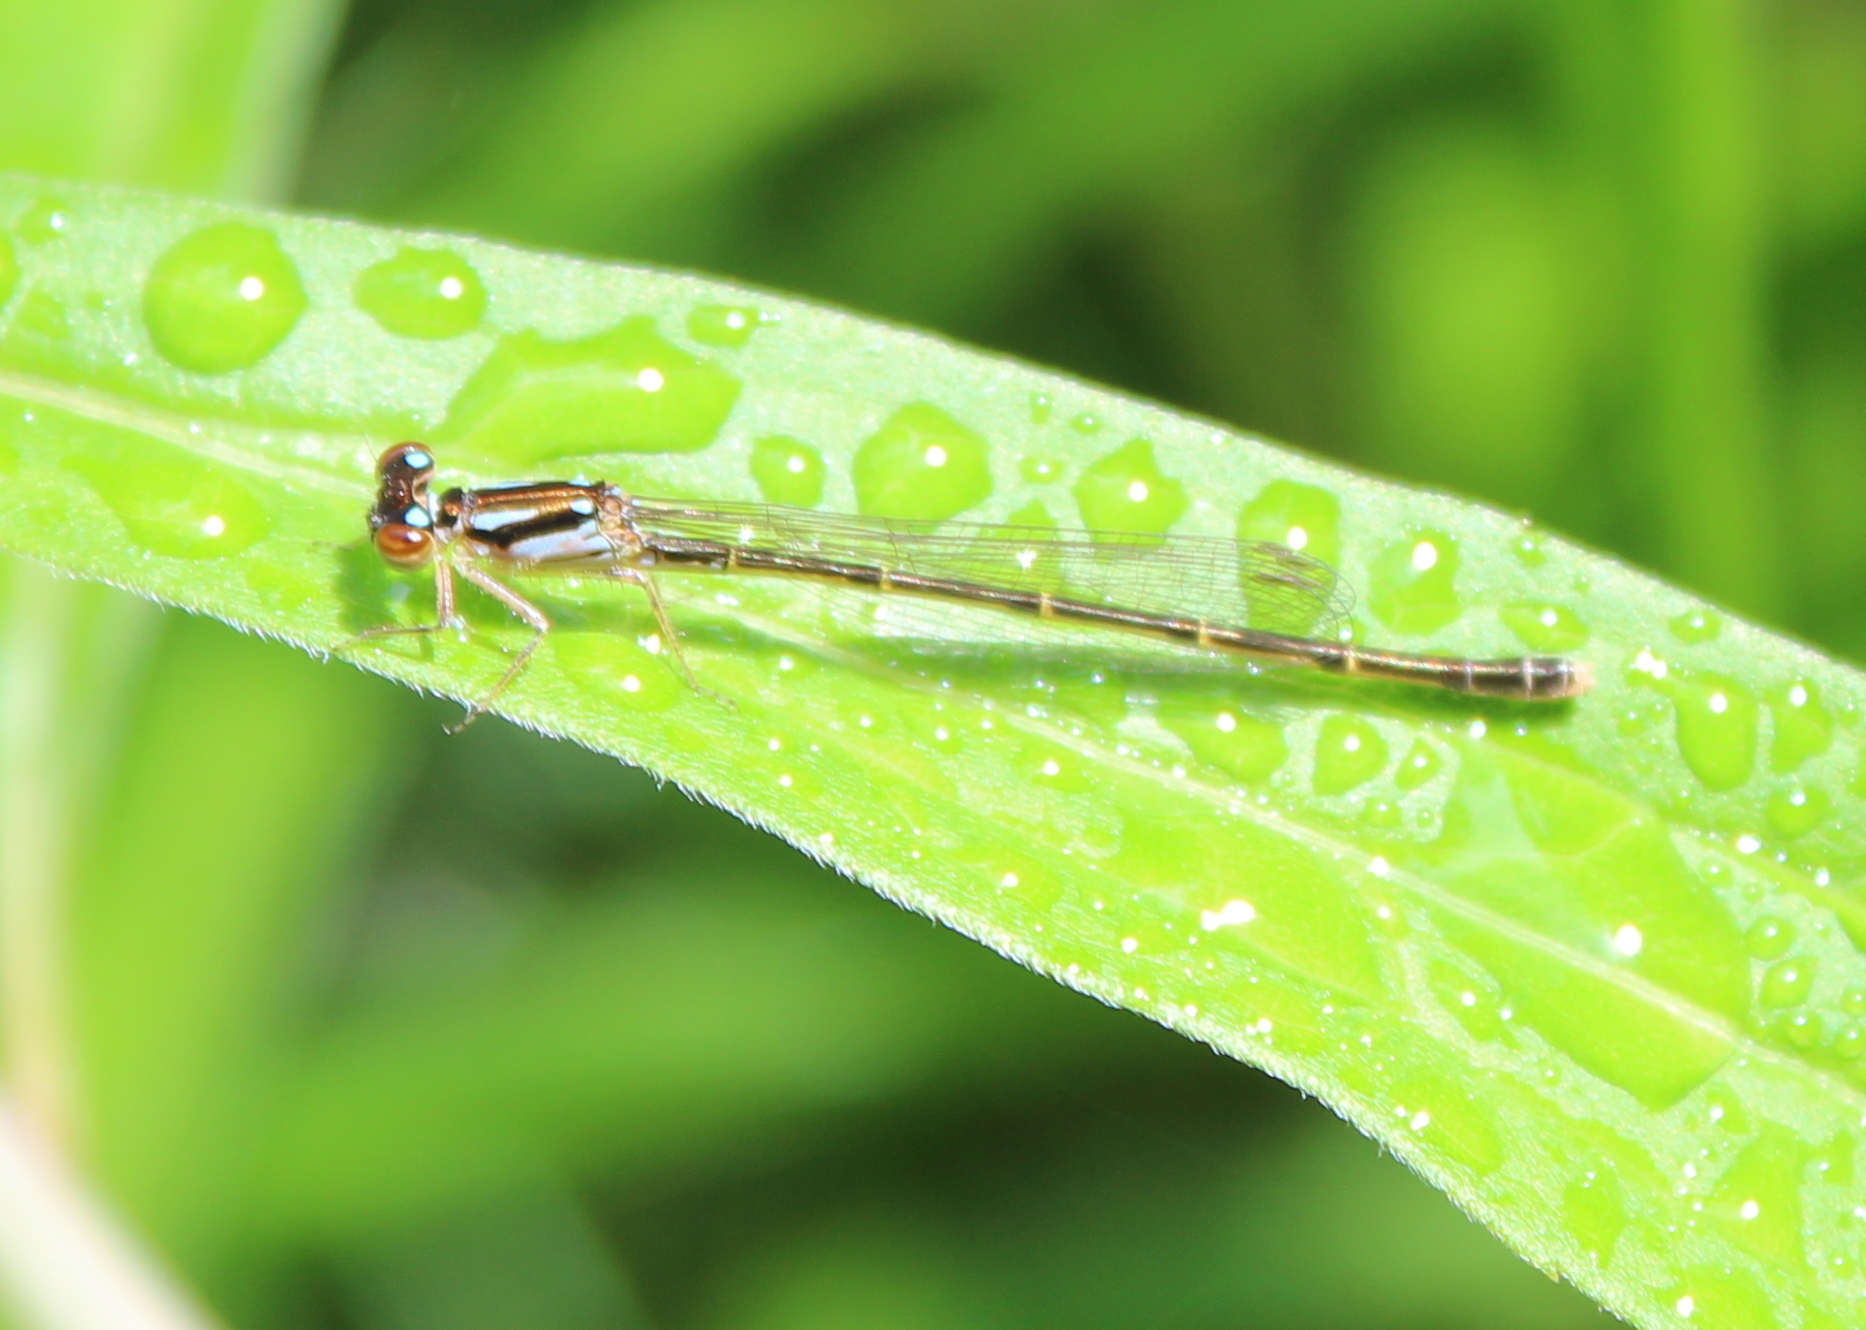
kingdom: Animalia
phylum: Arthropoda
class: Insecta
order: Odonata
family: Coenagrionidae
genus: Ischnura
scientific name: Ischnura posita
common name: Fragile forktail
